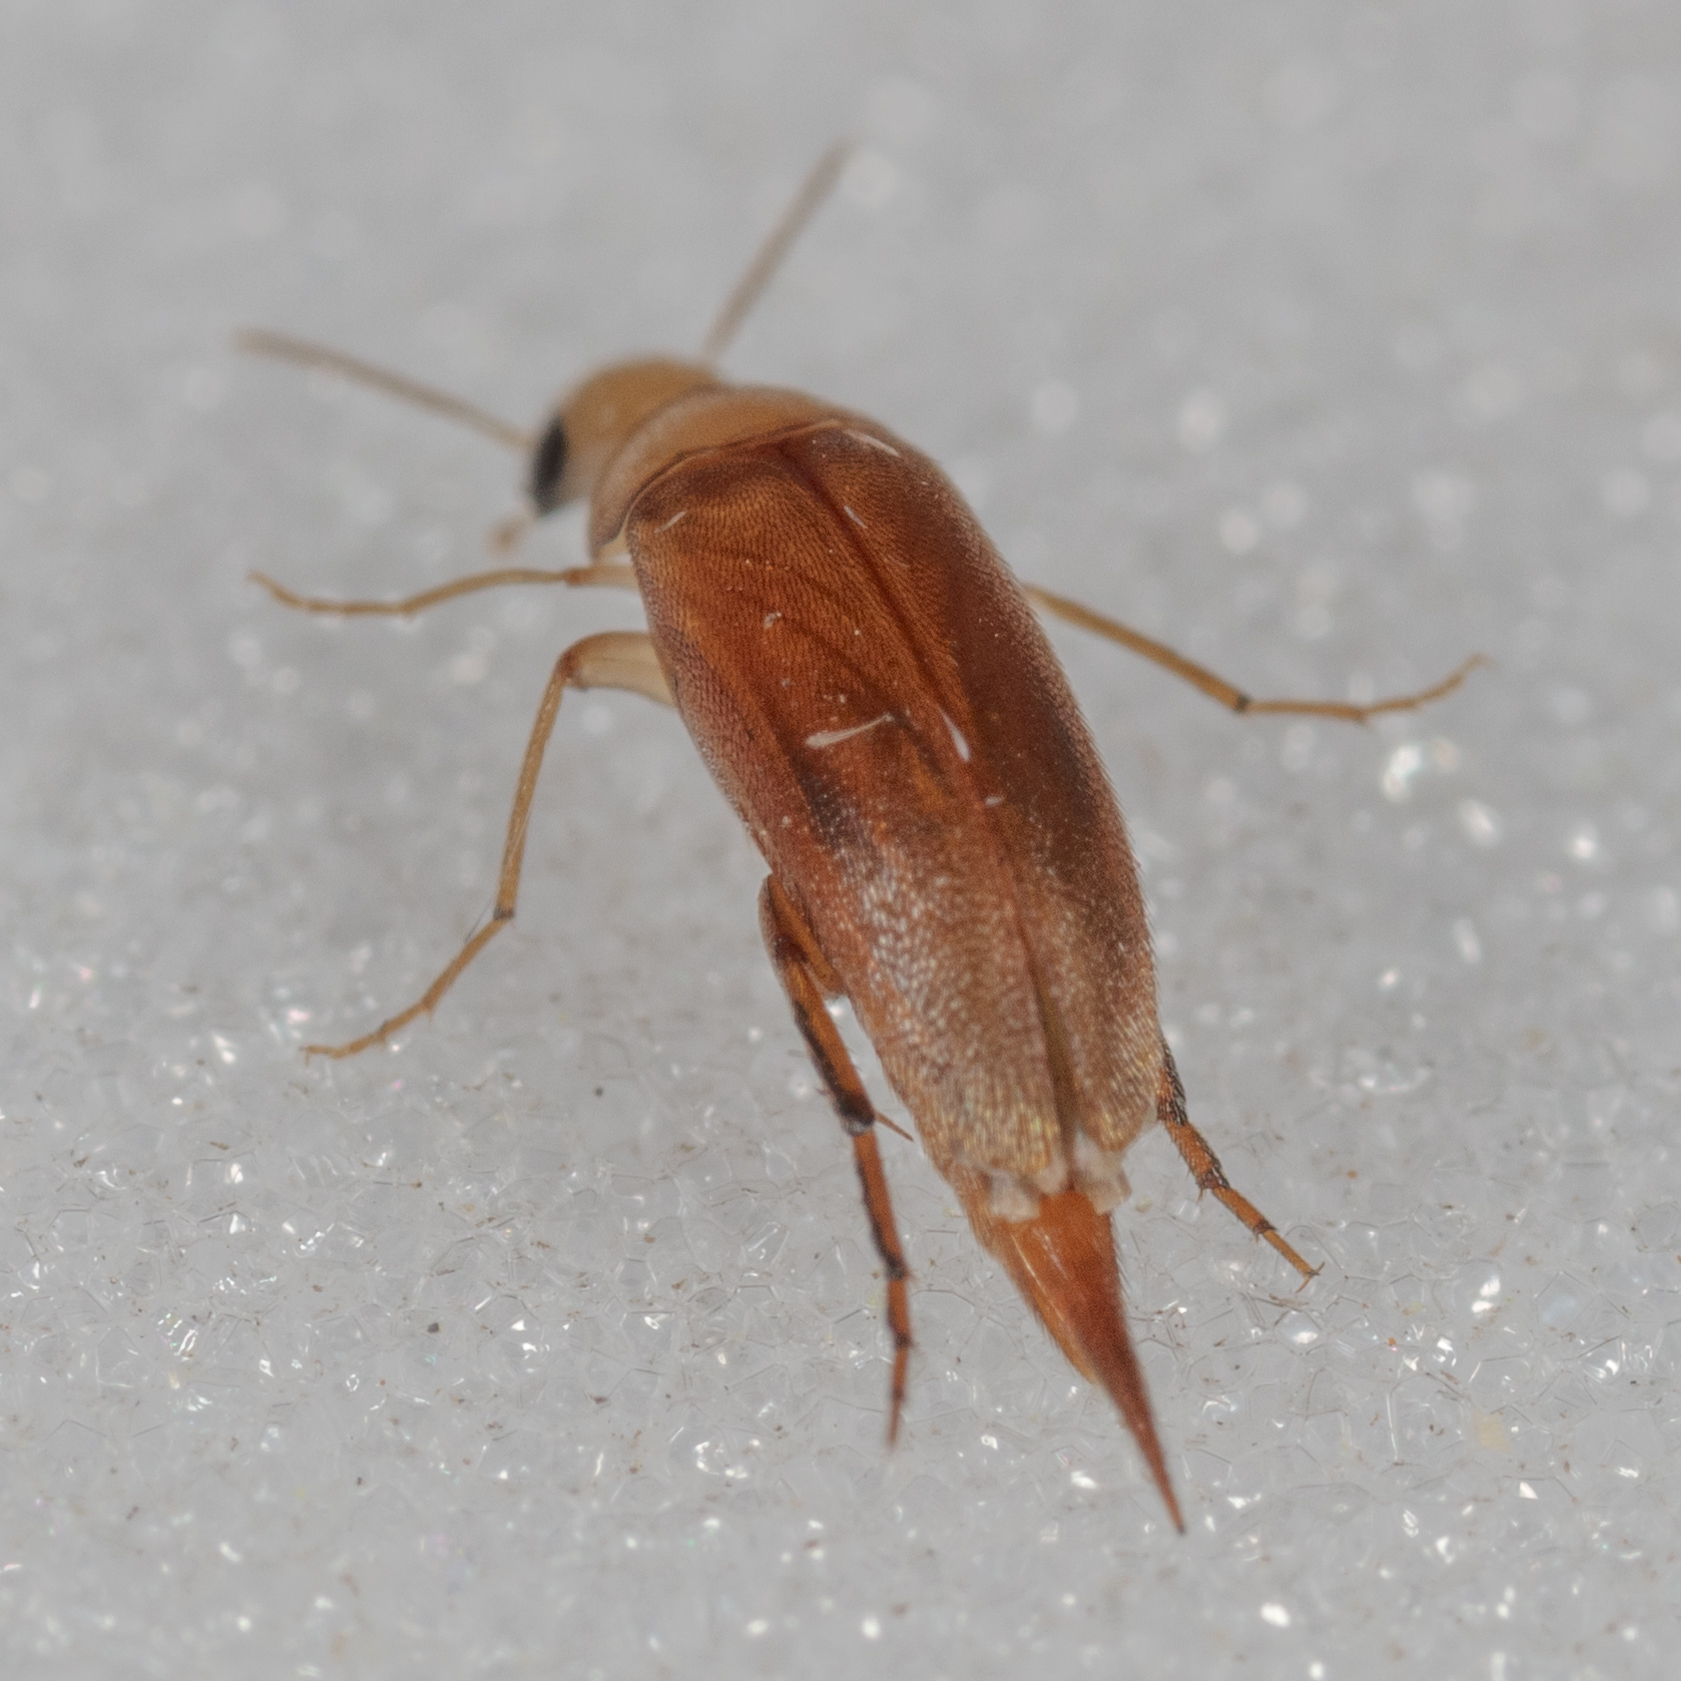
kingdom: Animalia
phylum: Arthropoda
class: Insecta
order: Coleoptera
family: Mordellidae
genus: Mordellina
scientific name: Mordellina testacea
